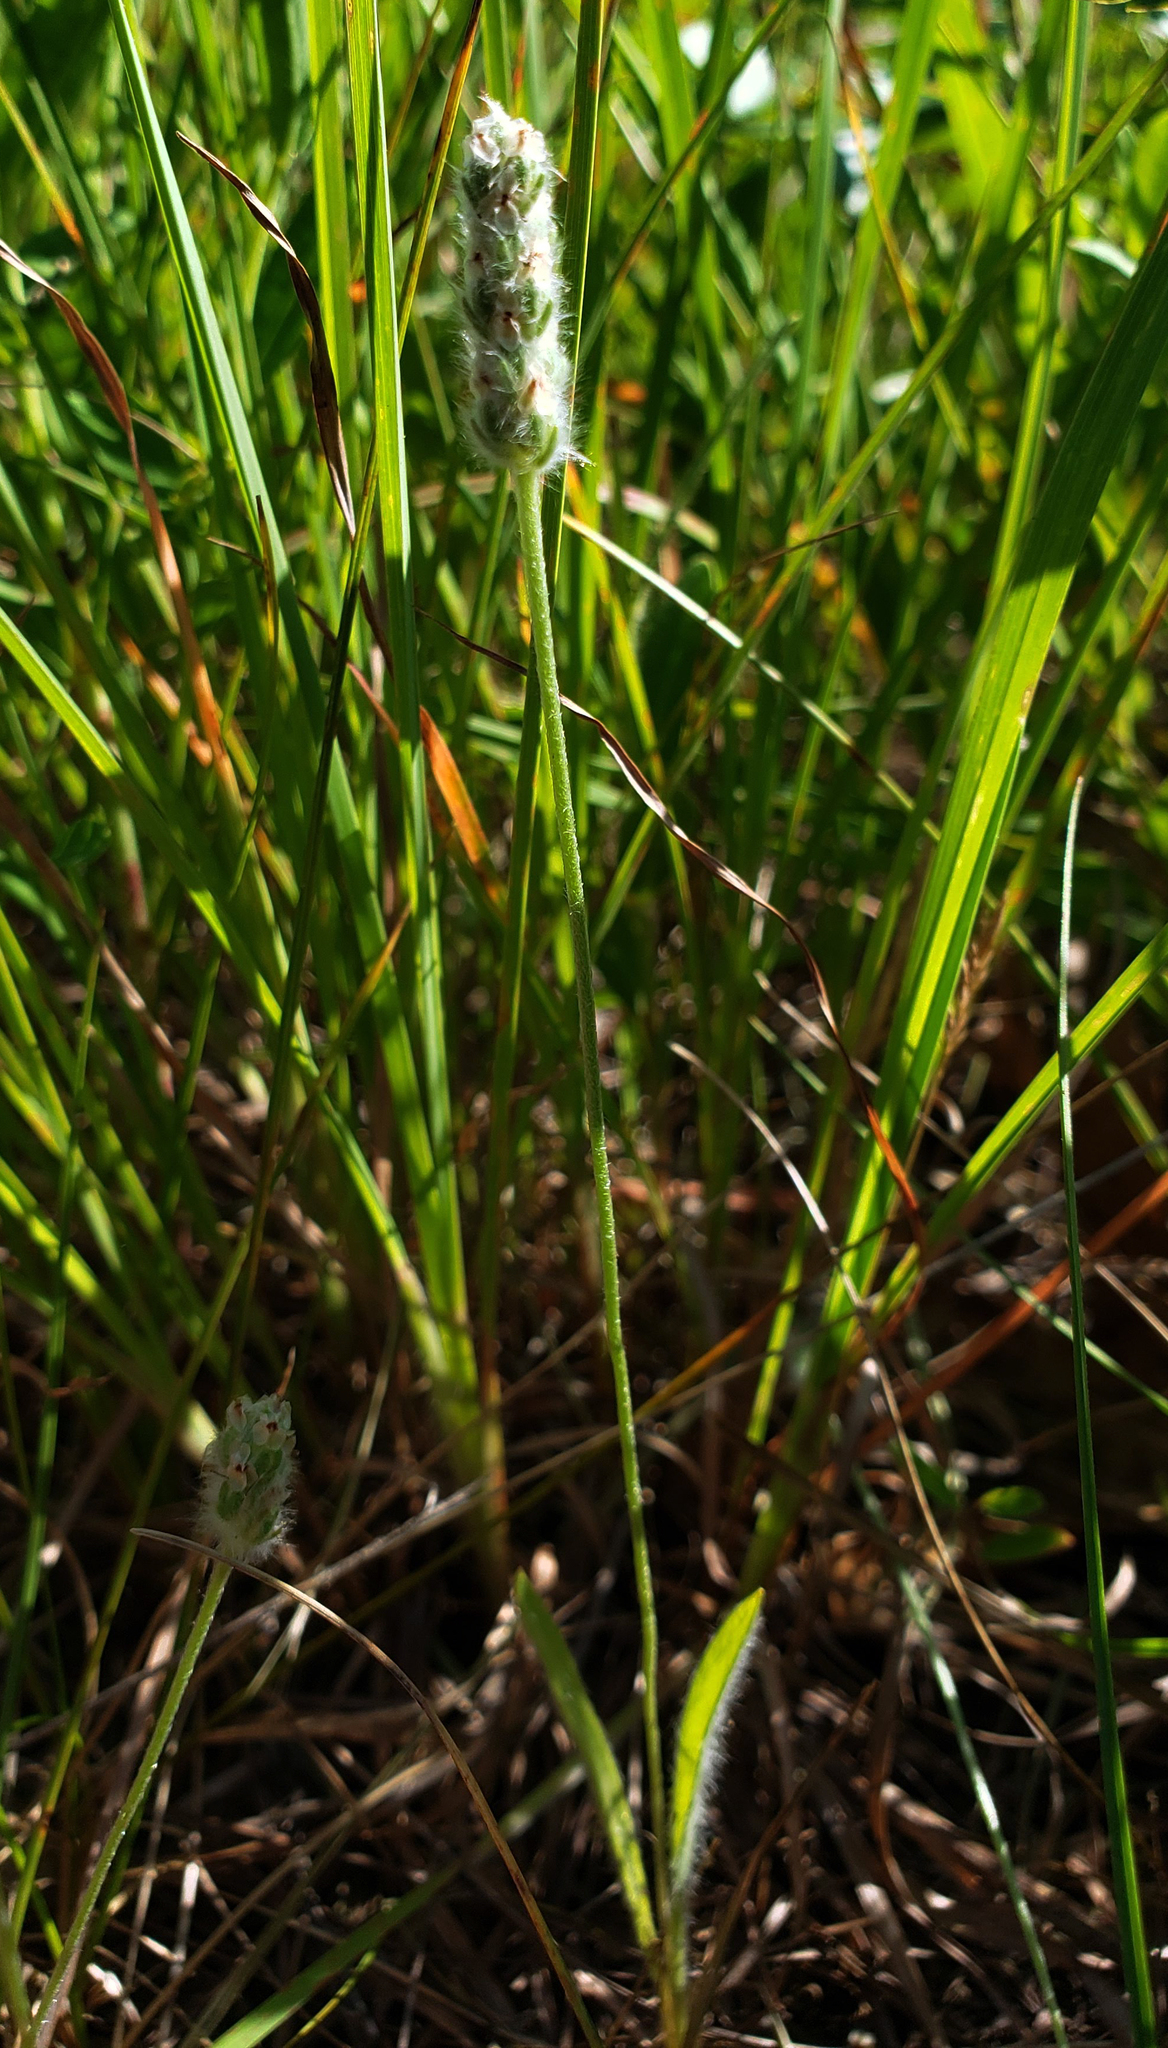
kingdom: Plantae
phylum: Tracheophyta
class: Magnoliopsida
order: Lamiales
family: Plantaginaceae
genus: Plantago
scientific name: Plantago patagonica
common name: Patagonia indian-wheat
